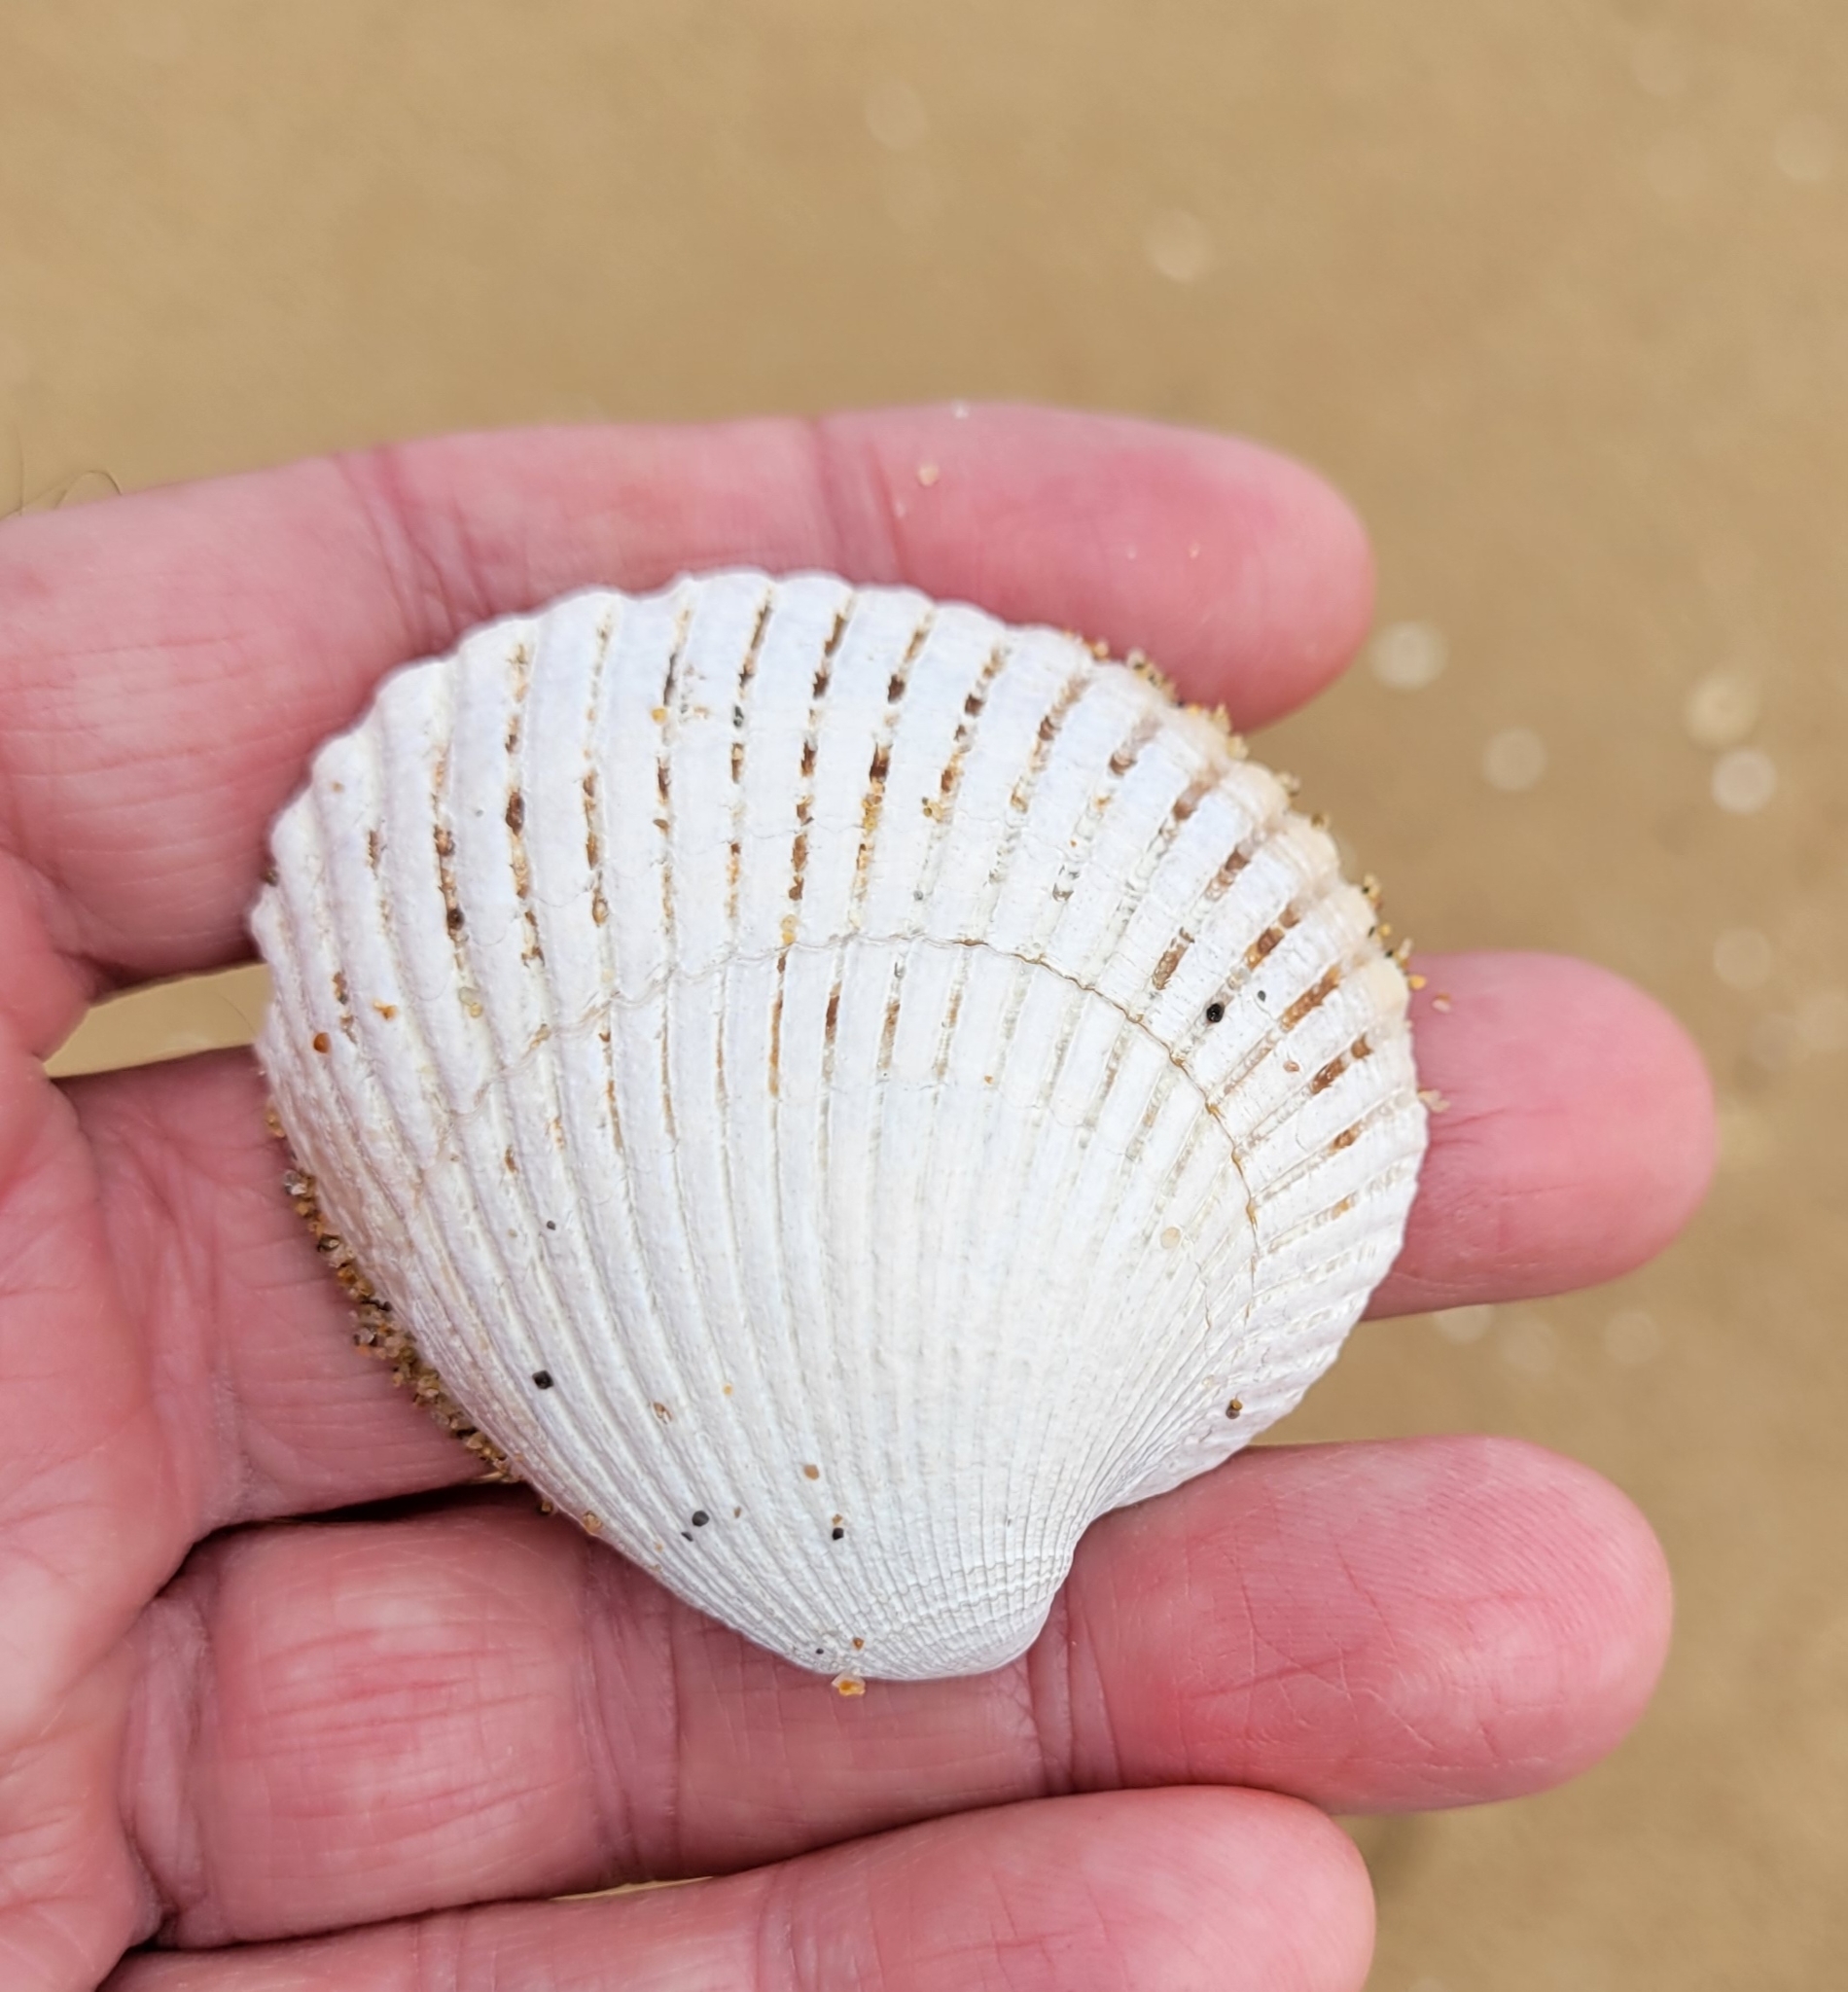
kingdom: Animalia
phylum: Mollusca
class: Bivalvia
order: Cardiida
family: Cardiidae
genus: Clinocardium
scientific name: Clinocardium nuttallii
